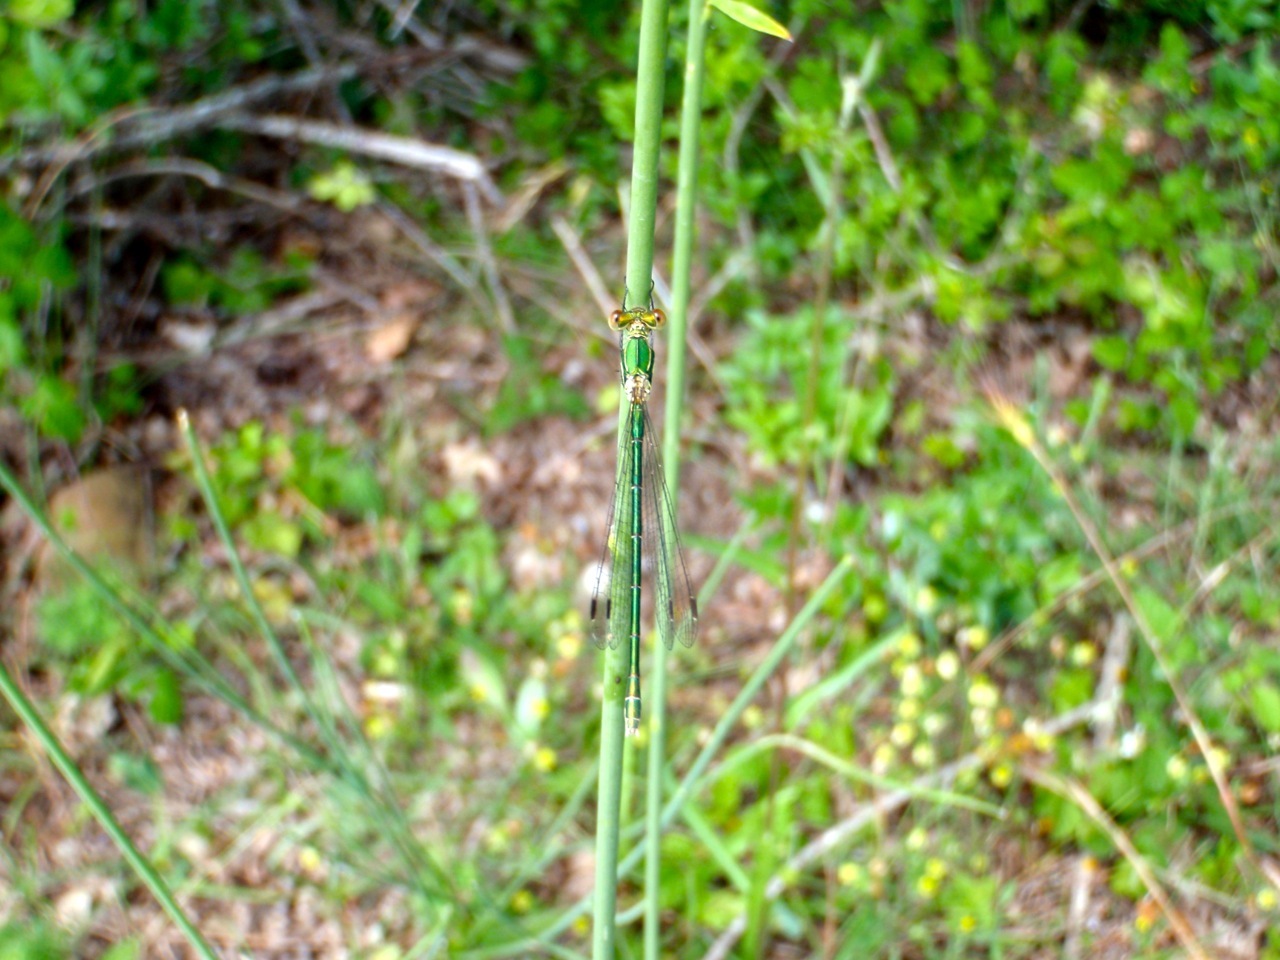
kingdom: Animalia
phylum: Arthropoda
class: Insecta
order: Odonata
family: Lestidae
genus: Lestes
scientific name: Lestes virens
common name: Small emerald spreadwing
